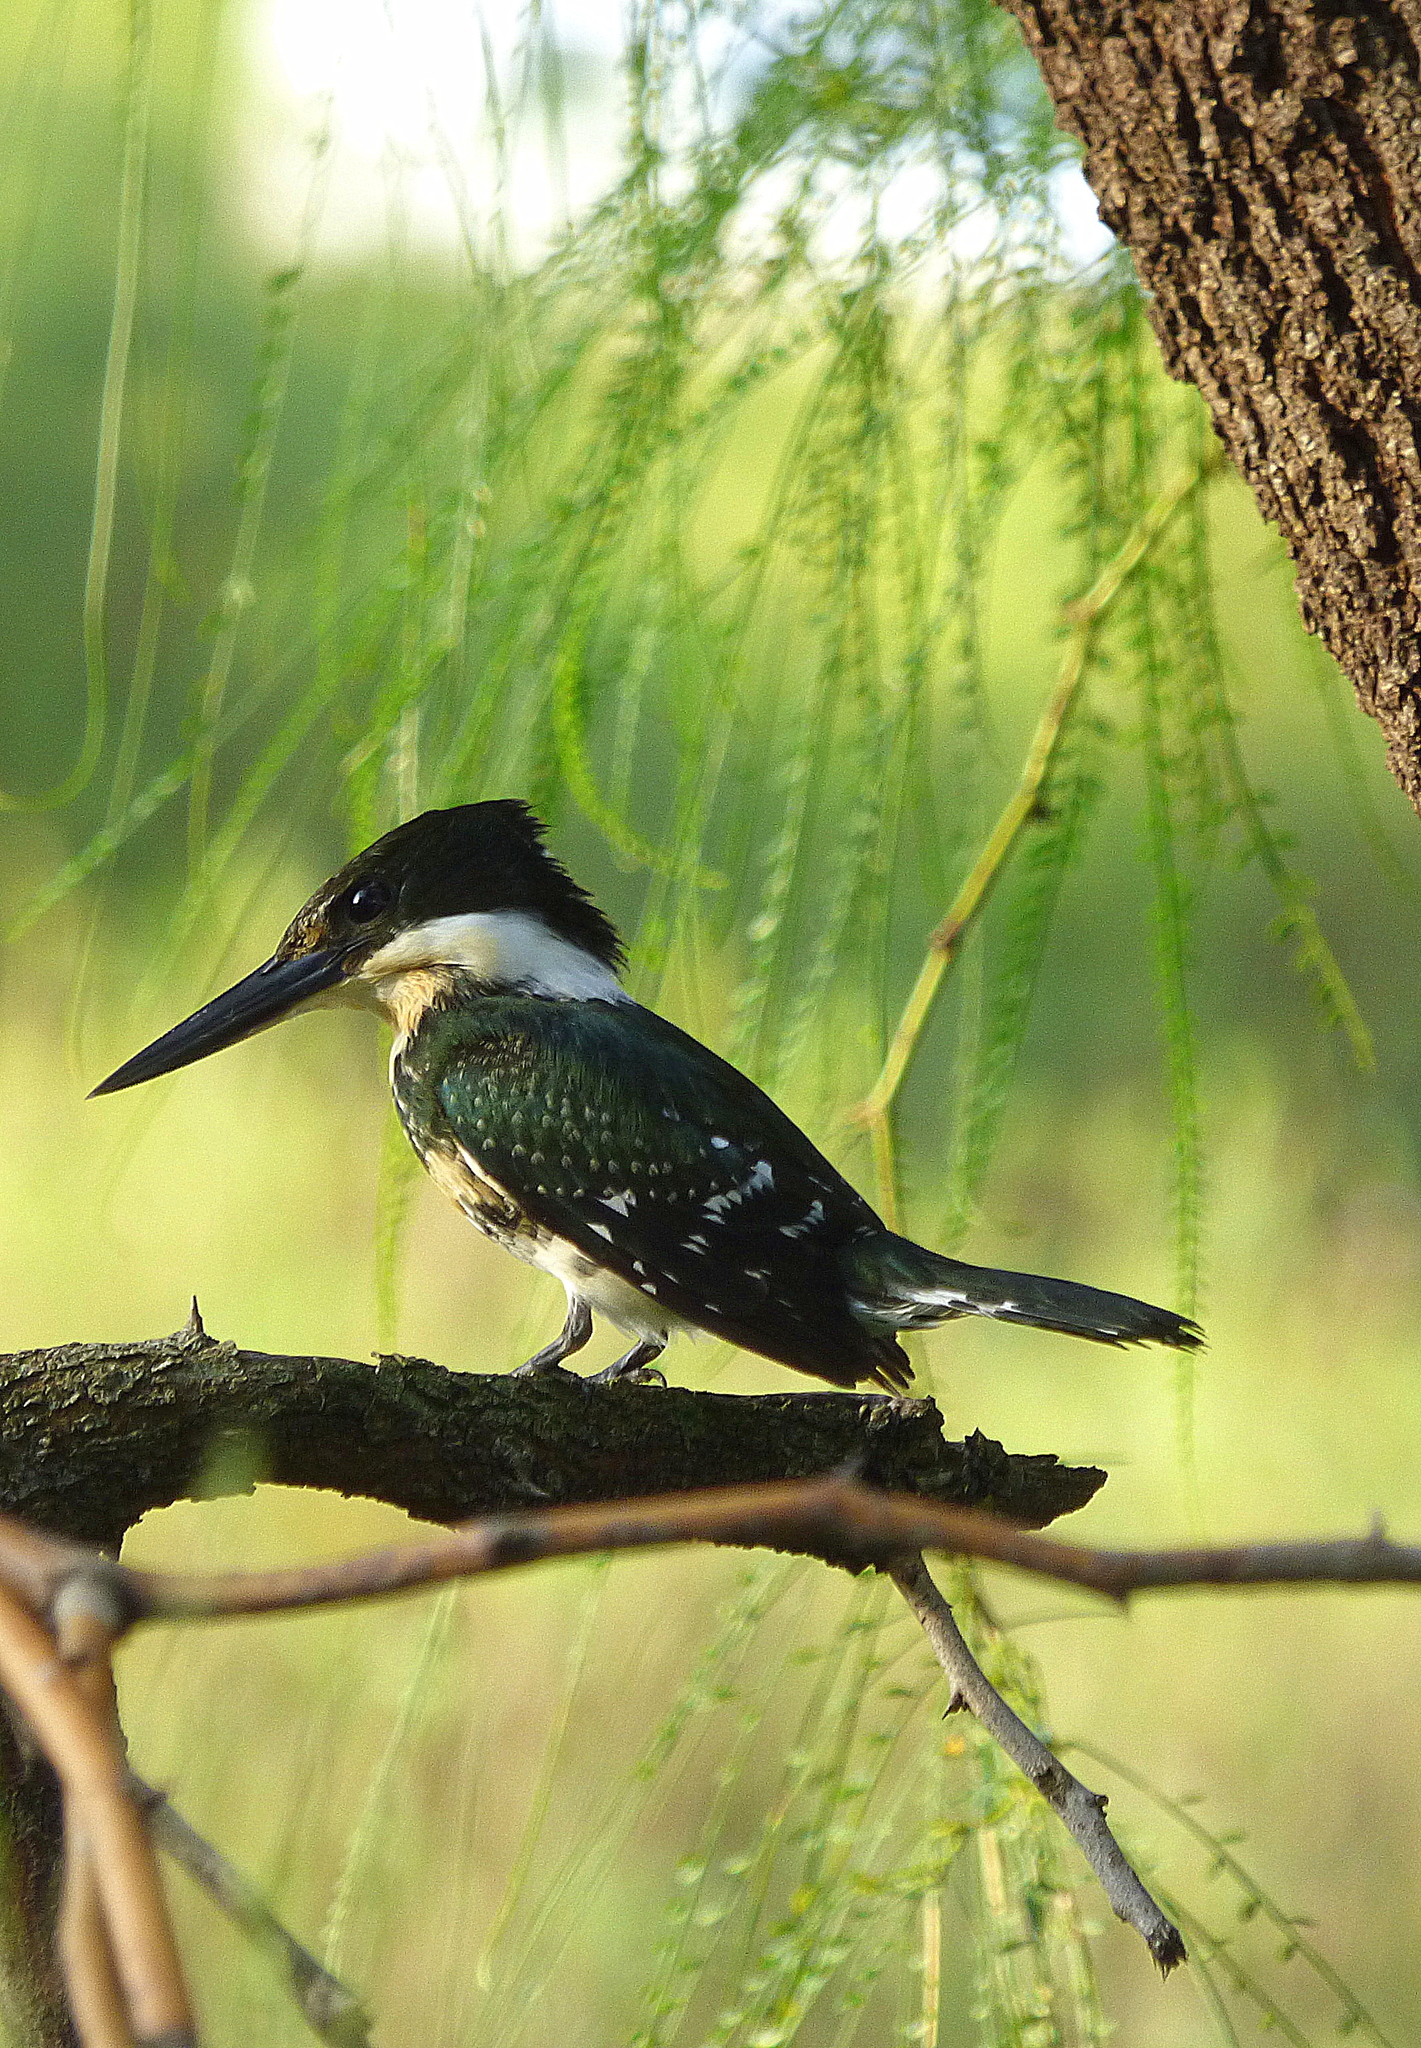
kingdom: Animalia
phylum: Chordata
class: Aves
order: Coraciiformes
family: Alcedinidae
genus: Chloroceryle
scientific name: Chloroceryle americana
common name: Green kingfisher
